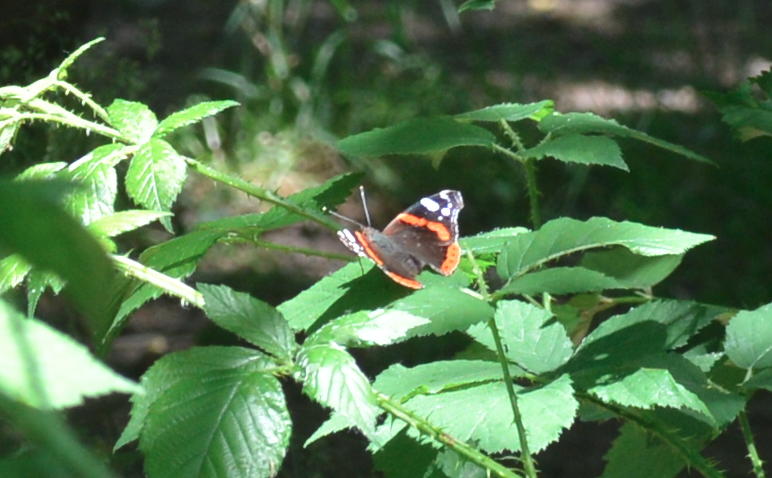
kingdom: Animalia
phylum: Arthropoda
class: Insecta
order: Lepidoptera
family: Nymphalidae
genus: Vanessa
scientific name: Vanessa atalanta
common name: Red admiral
